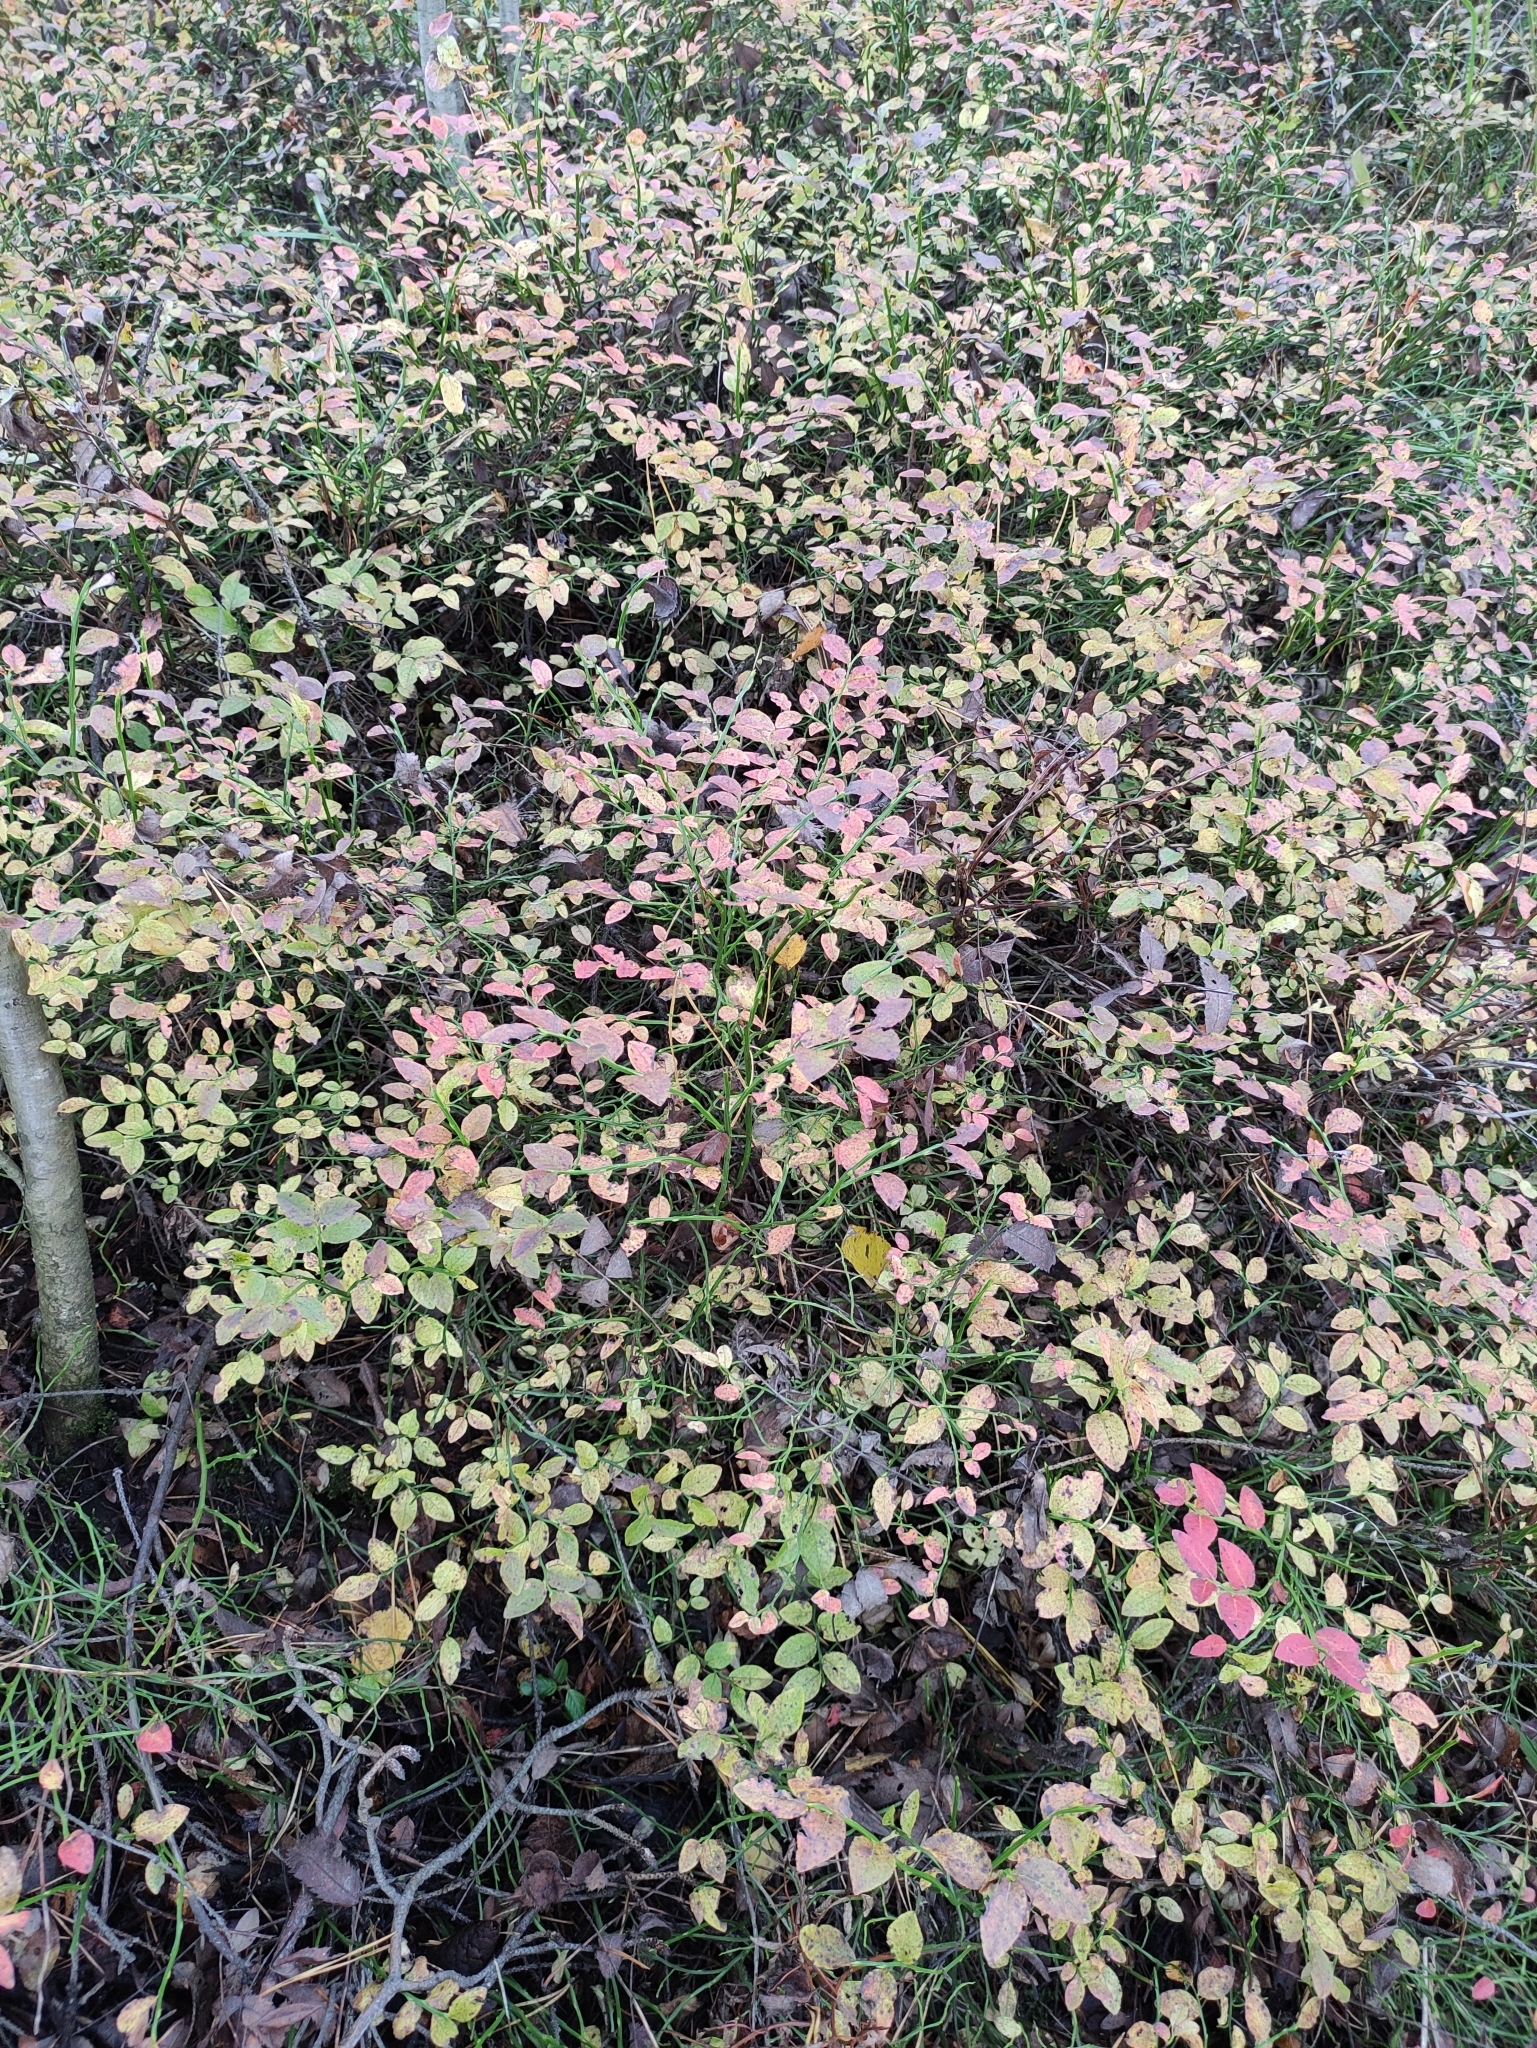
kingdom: Plantae
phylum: Tracheophyta
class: Magnoliopsida
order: Ericales
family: Ericaceae
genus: Vaccinium
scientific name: Vaccinium myrtillus
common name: Bilberry
